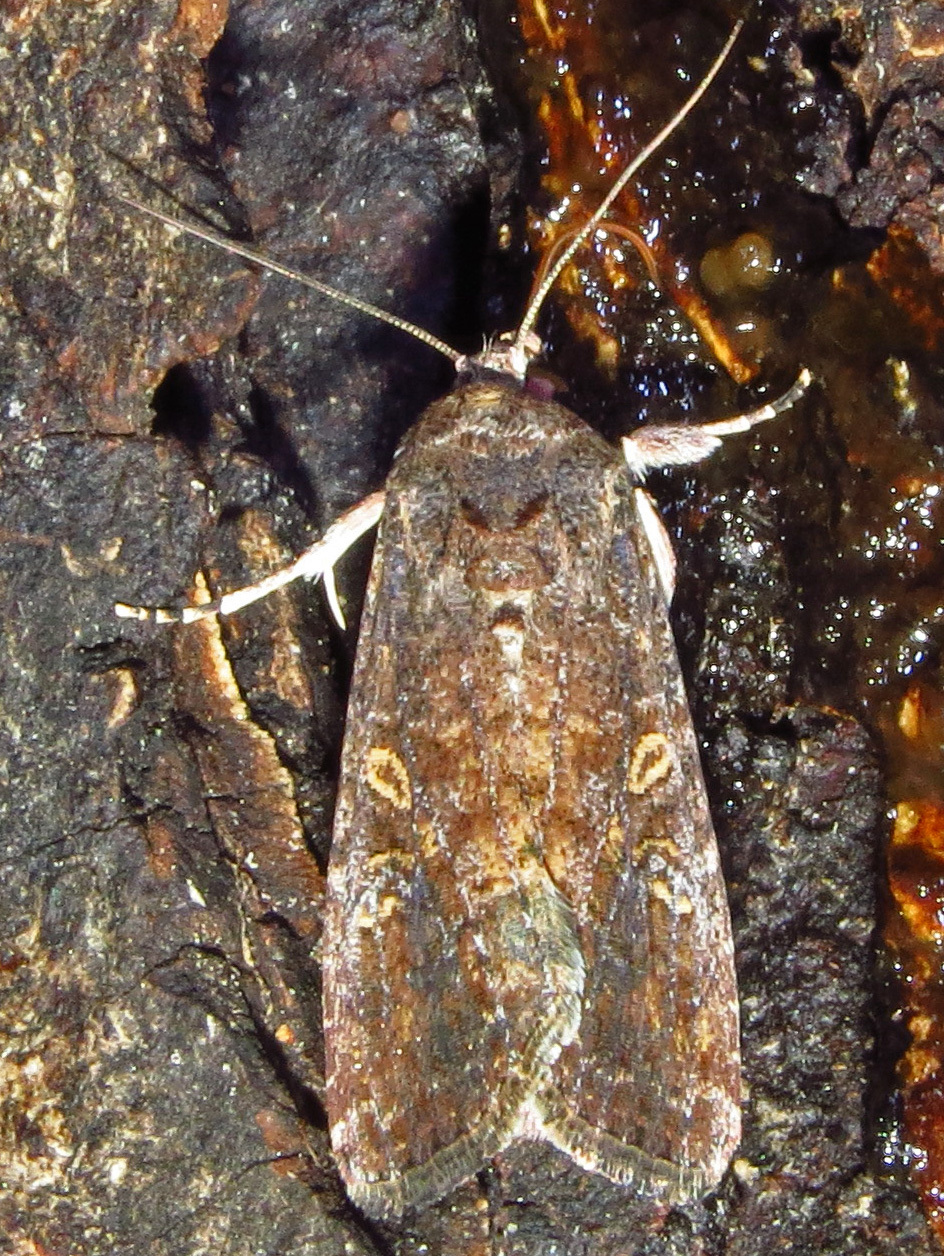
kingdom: Animalia
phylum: Arthropoda
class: Insecta
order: Lepidoptera
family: Noctuidae
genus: Spodoptera
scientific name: Spodoptera frugiperda
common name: Fall armyworm
